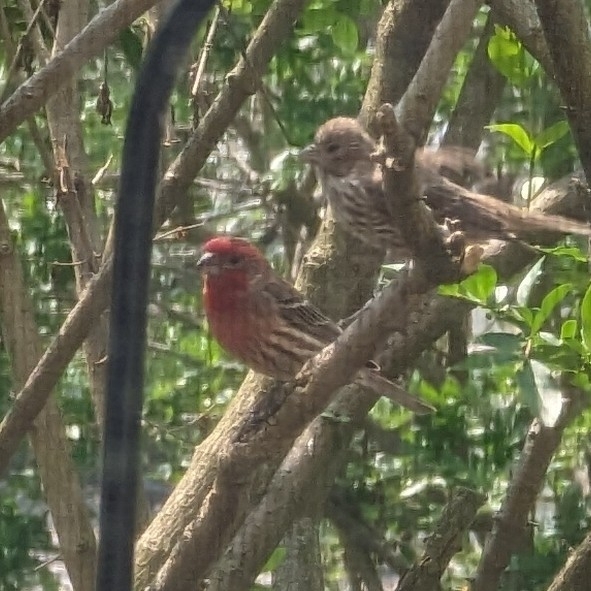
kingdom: Animalia
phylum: Chordata
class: Aves
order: Passeriformes
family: Fringillidae
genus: Haemorhous
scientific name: Haemorhous mexicanus
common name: House finch
